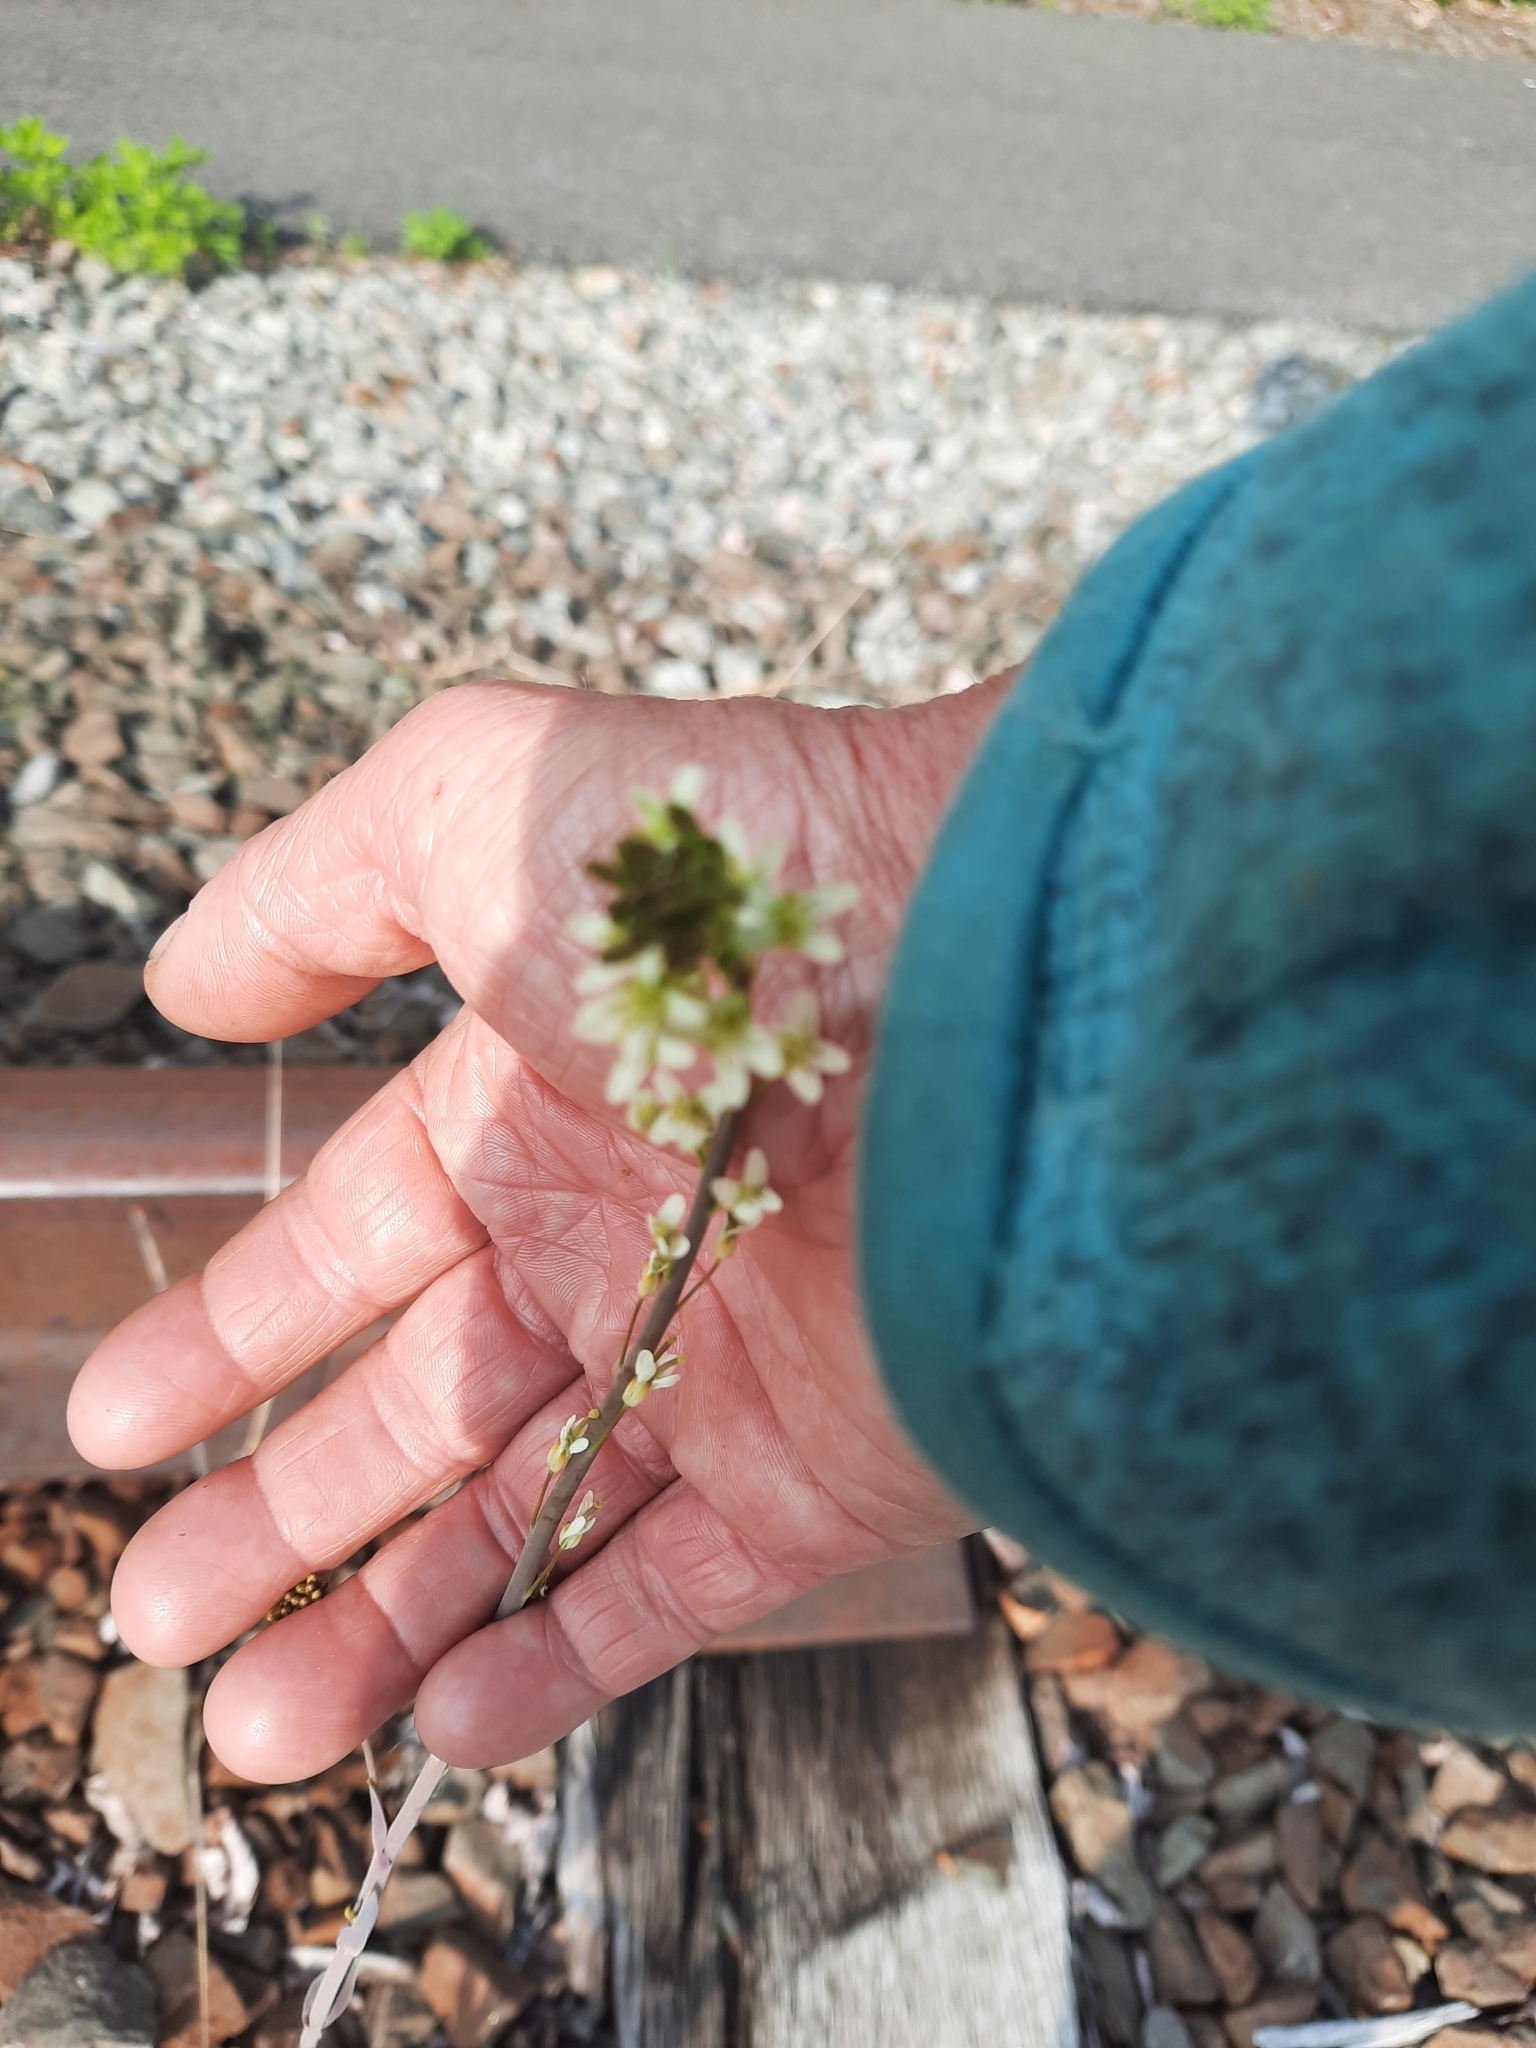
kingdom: Plantae
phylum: Tracheophyta
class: Magnoliopsida
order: Brassicales
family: Brassicaceae
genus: Turritis
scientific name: Turritis glabra
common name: Tower rockcress
